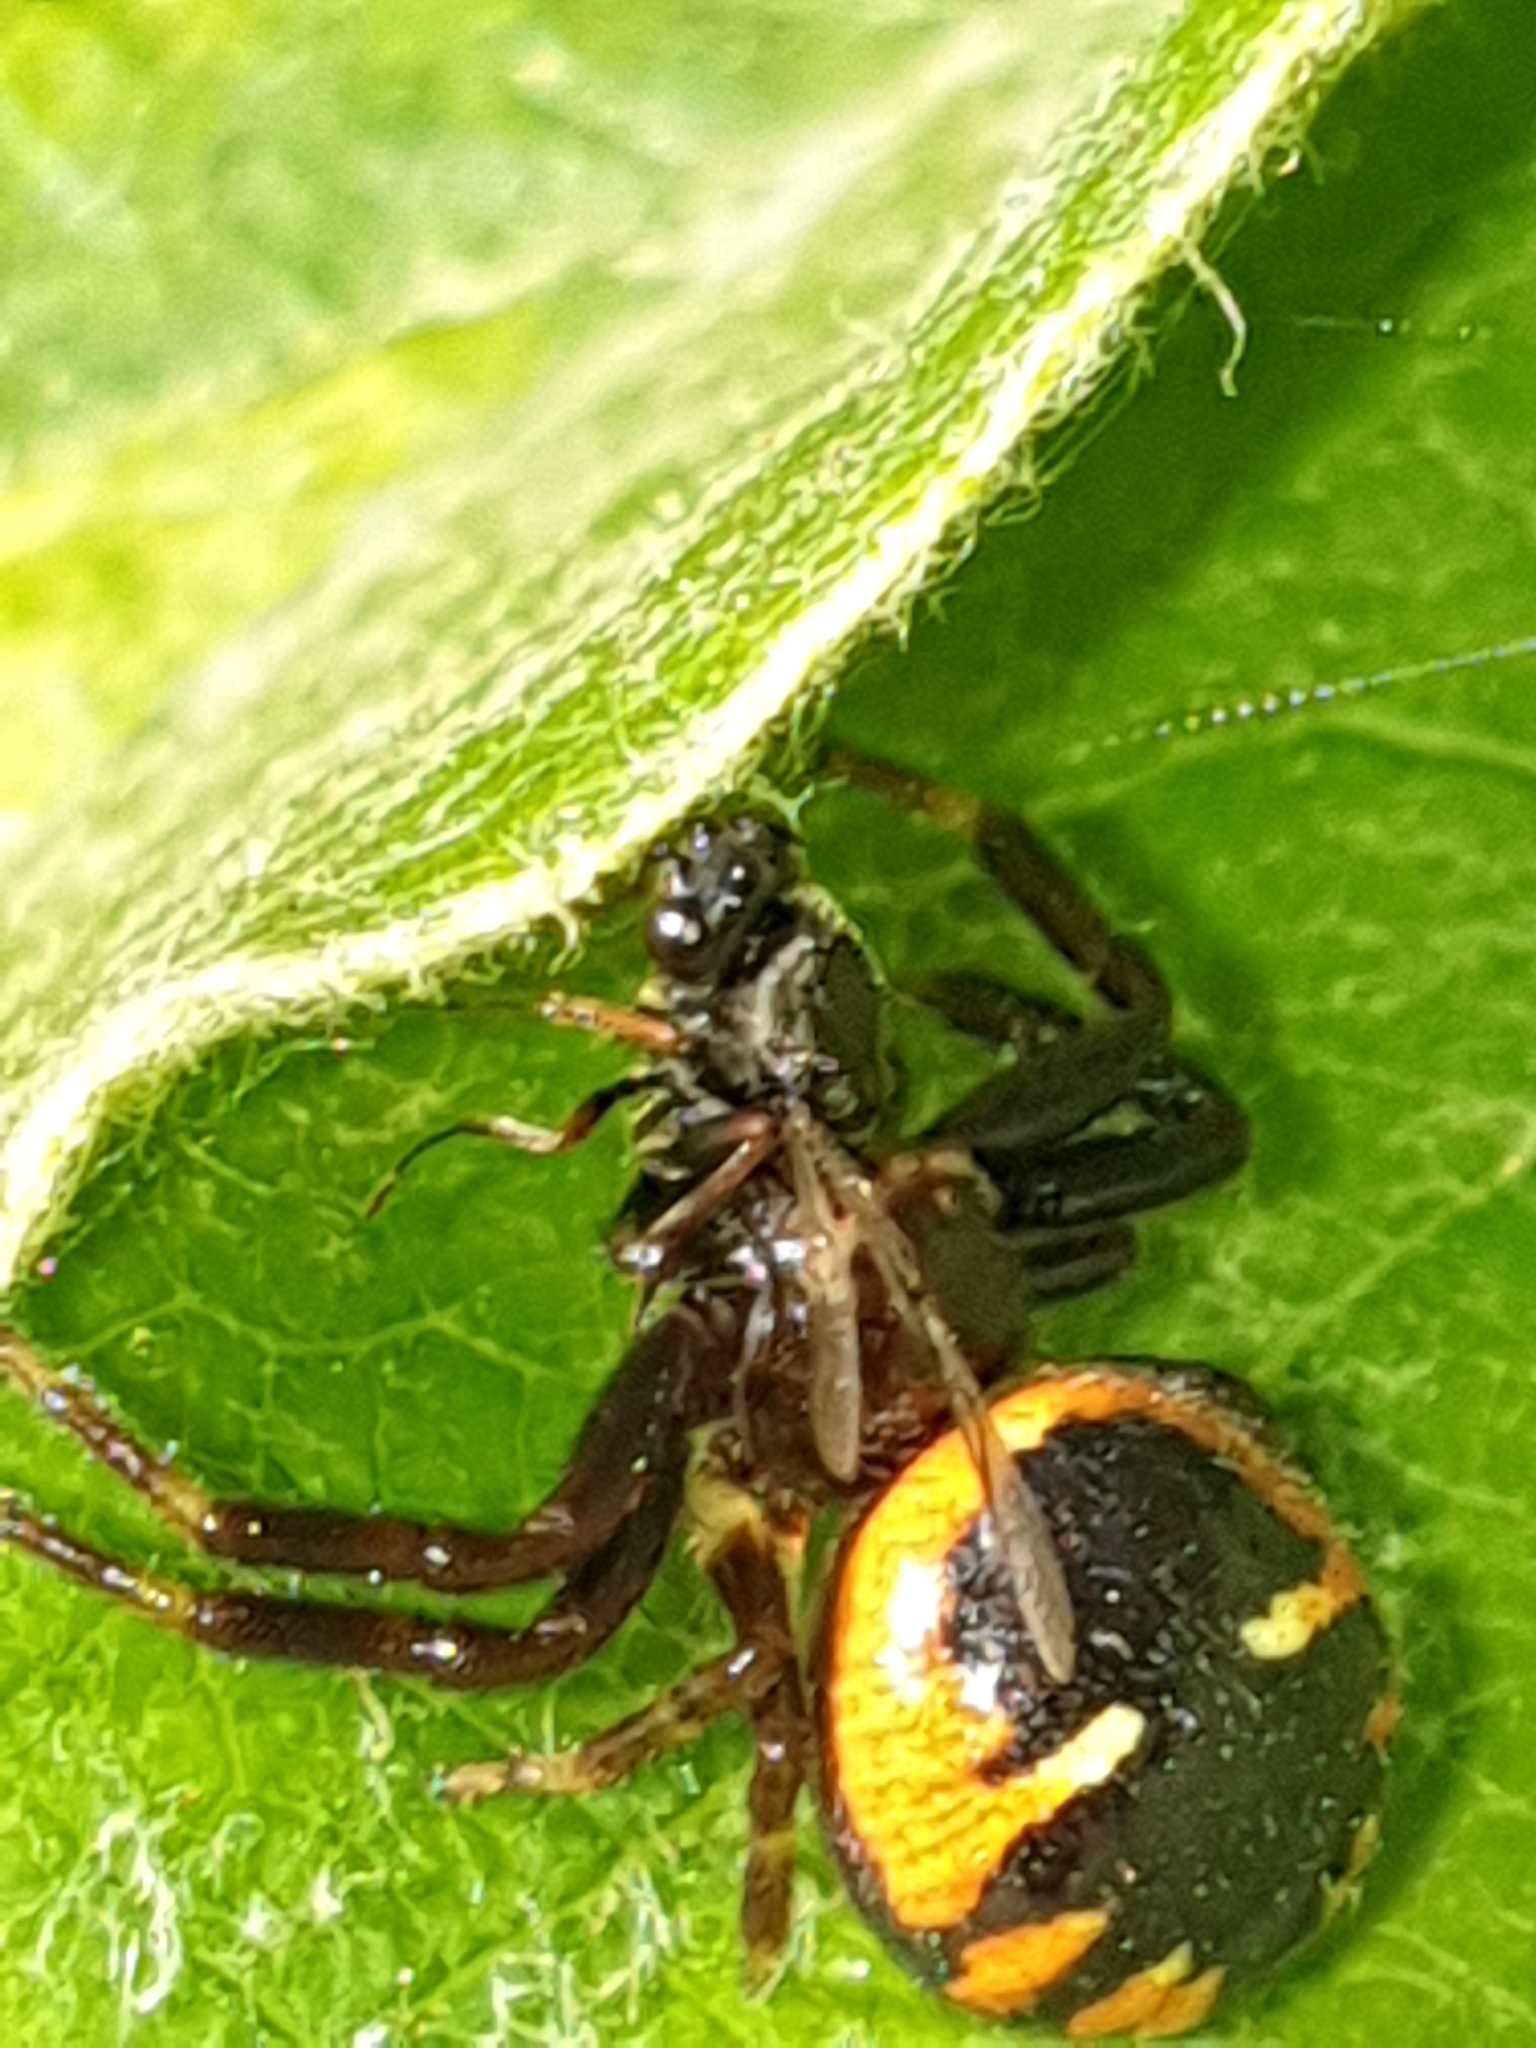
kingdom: Animalia
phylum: Arthropoda
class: Arachnida
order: Araneae
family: Thomisidae
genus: Synema
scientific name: Synema globosum
